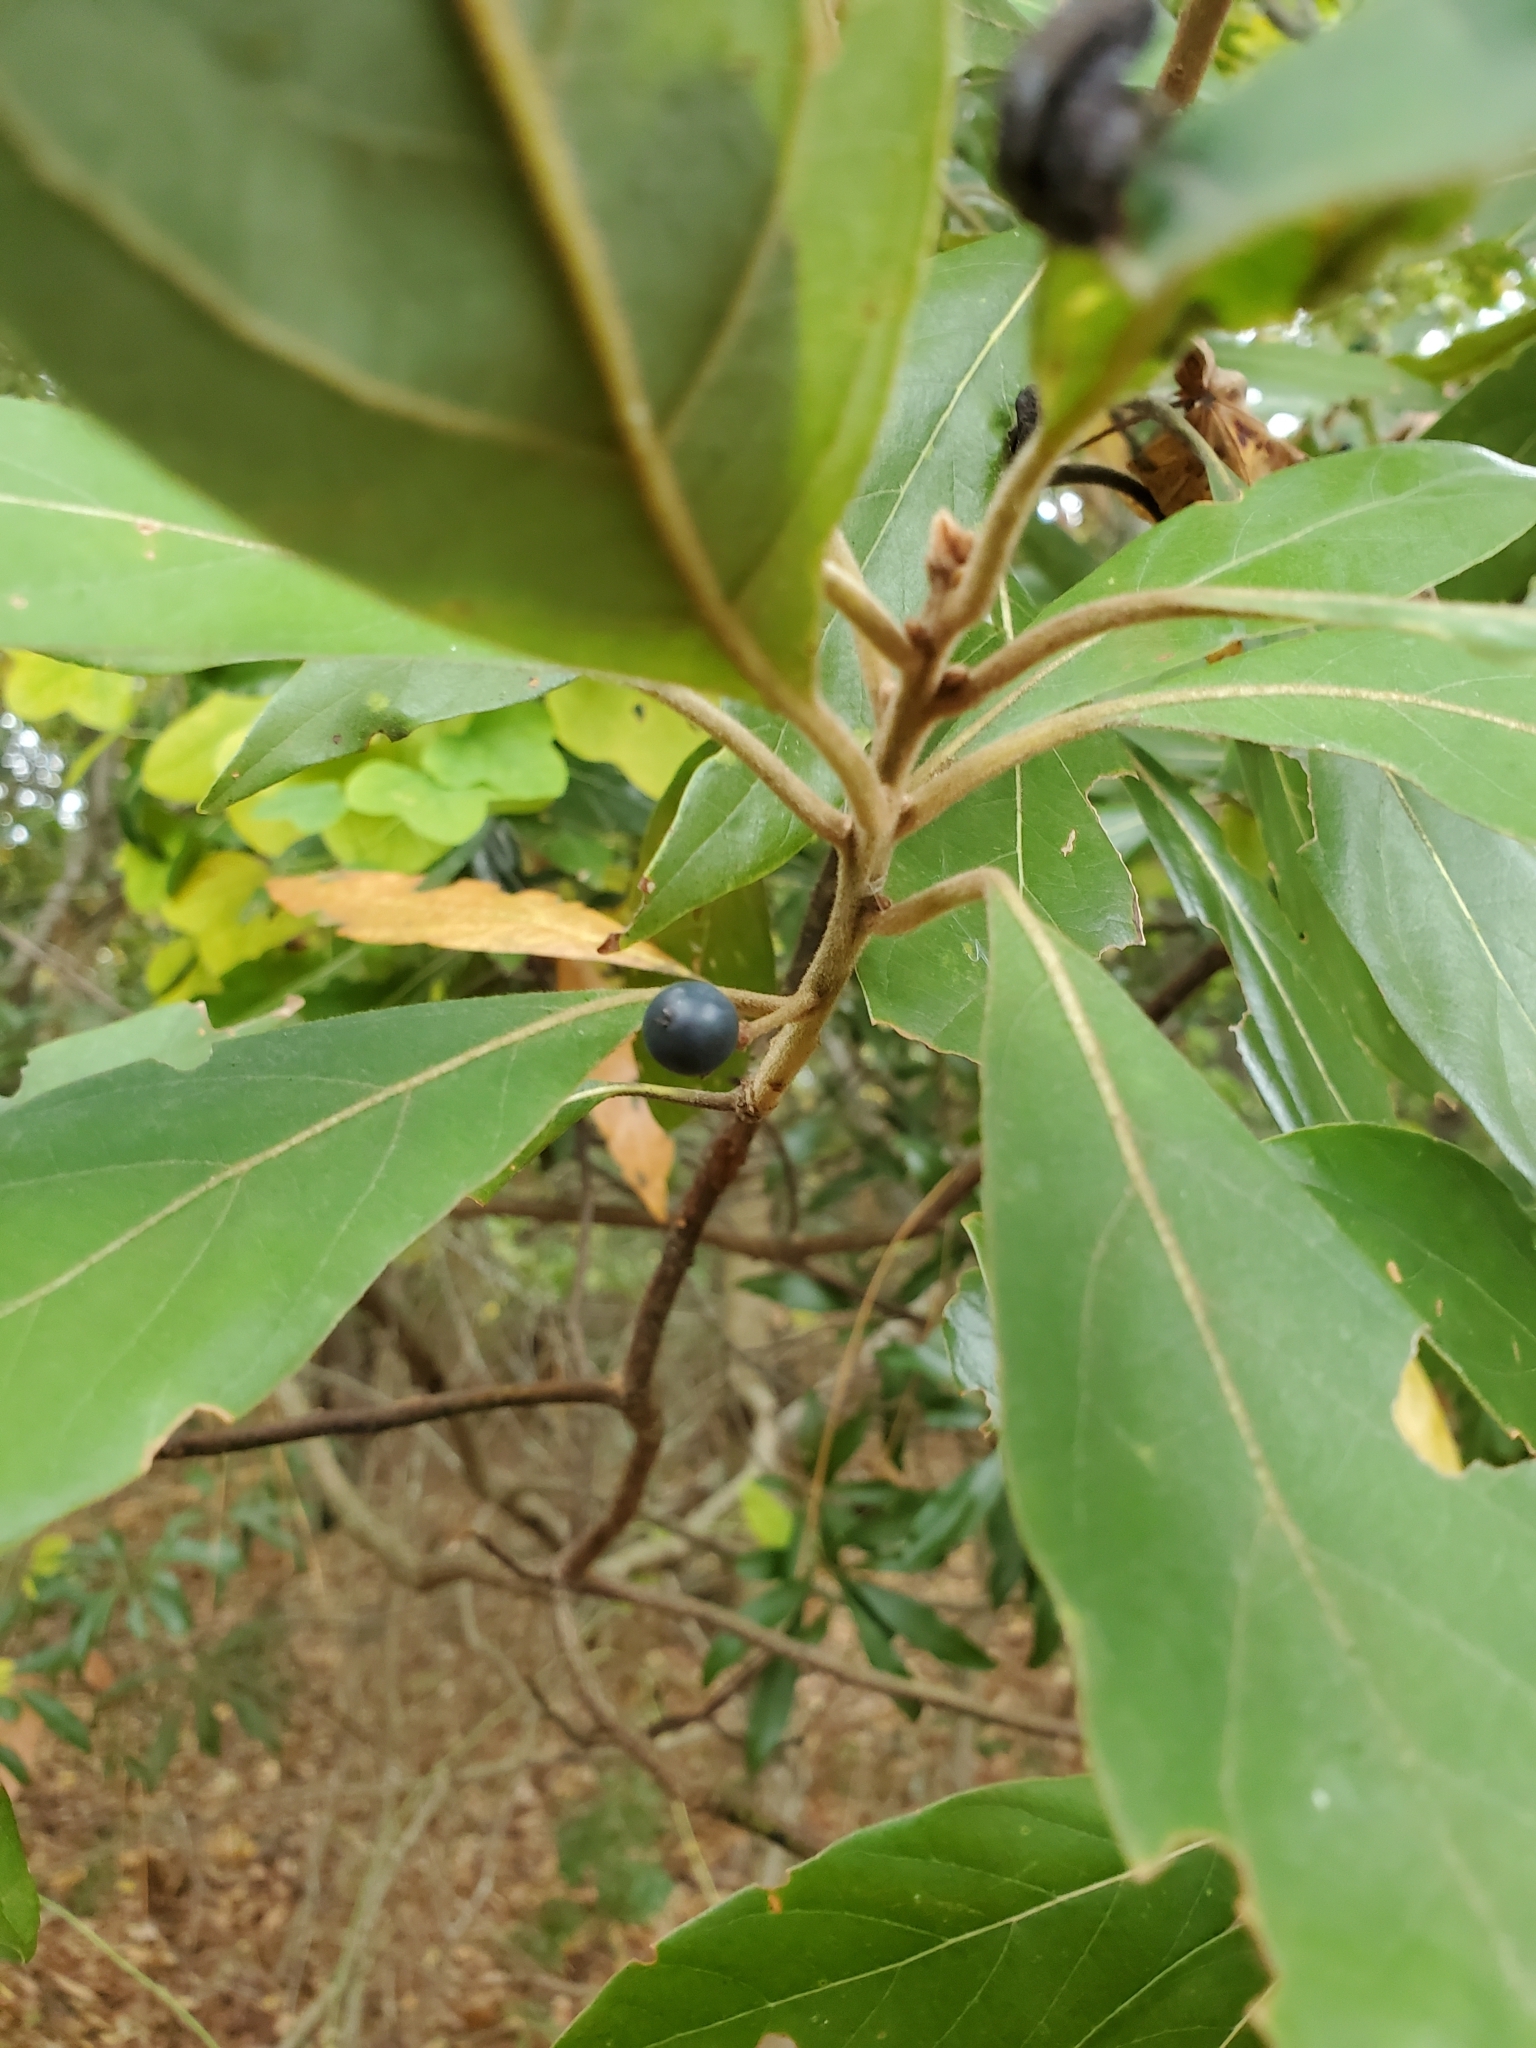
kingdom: Plantae
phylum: Tracheophyta
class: Magnoliopsida
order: Laurales
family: Lauraceae
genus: Persea
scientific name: Persea palustris
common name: Swampbay
